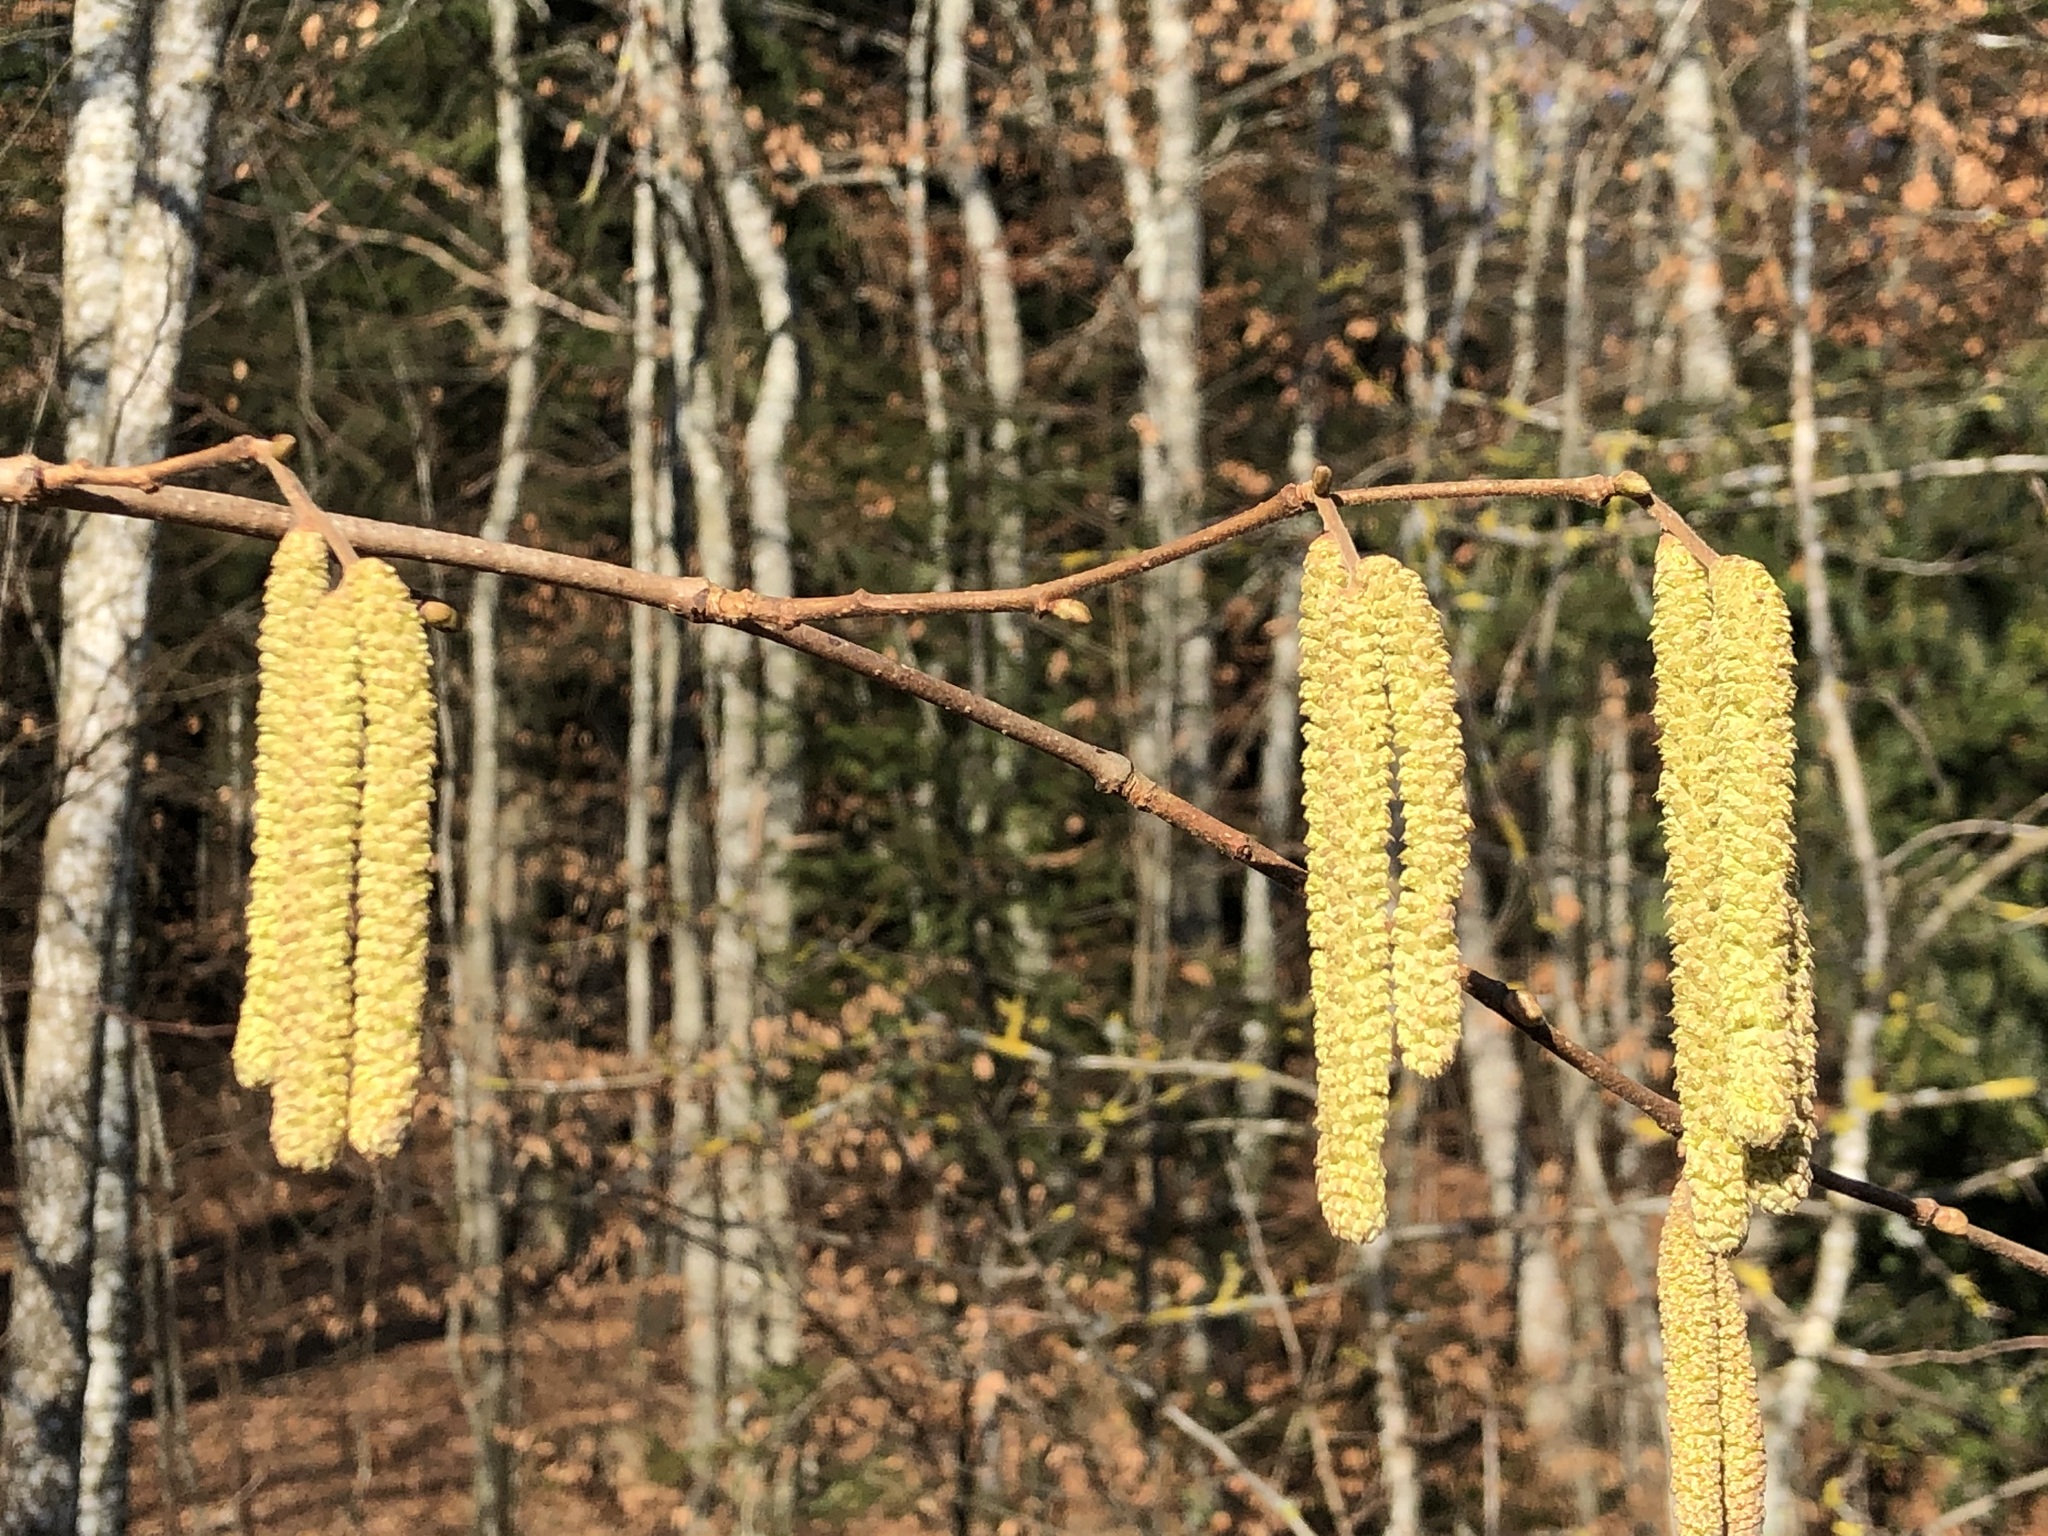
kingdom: Plantae
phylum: Tracheophyta
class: Magnoliopsida
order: Fagales
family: Betulaceae
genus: Corylus
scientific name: Corylus avellana
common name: European hazel
